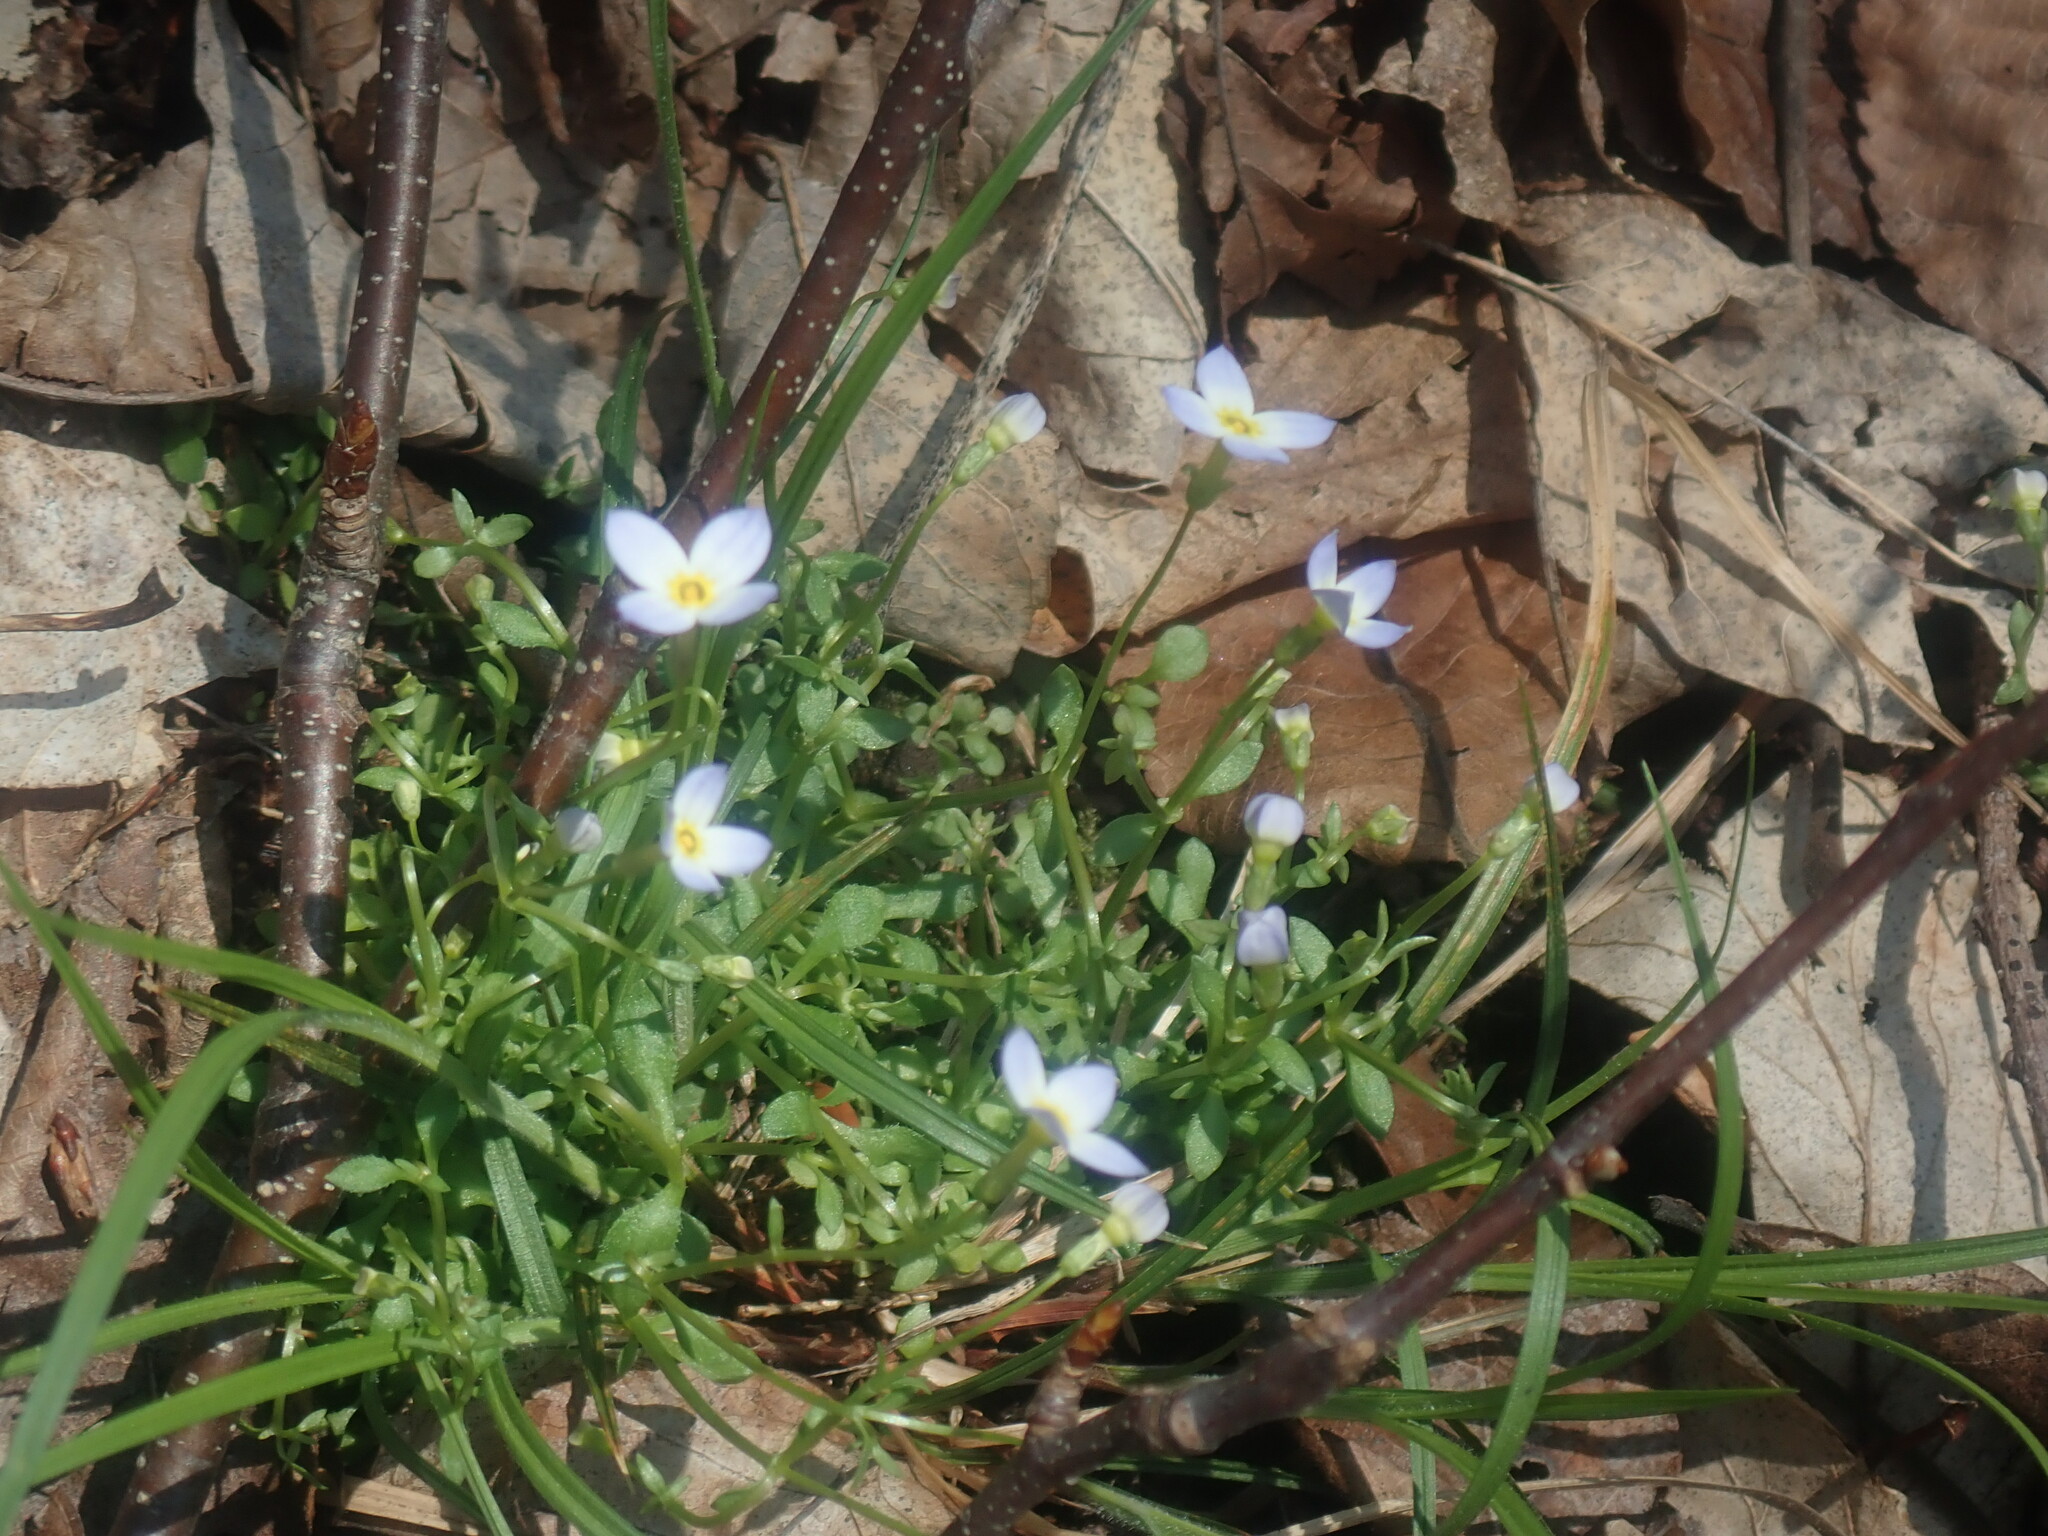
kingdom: Plantae
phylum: Tracheophyta
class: Magnoliopsida
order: Gentianales
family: Rubiaceae
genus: Houstonia
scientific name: Houstonia caerulea
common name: Bluets
